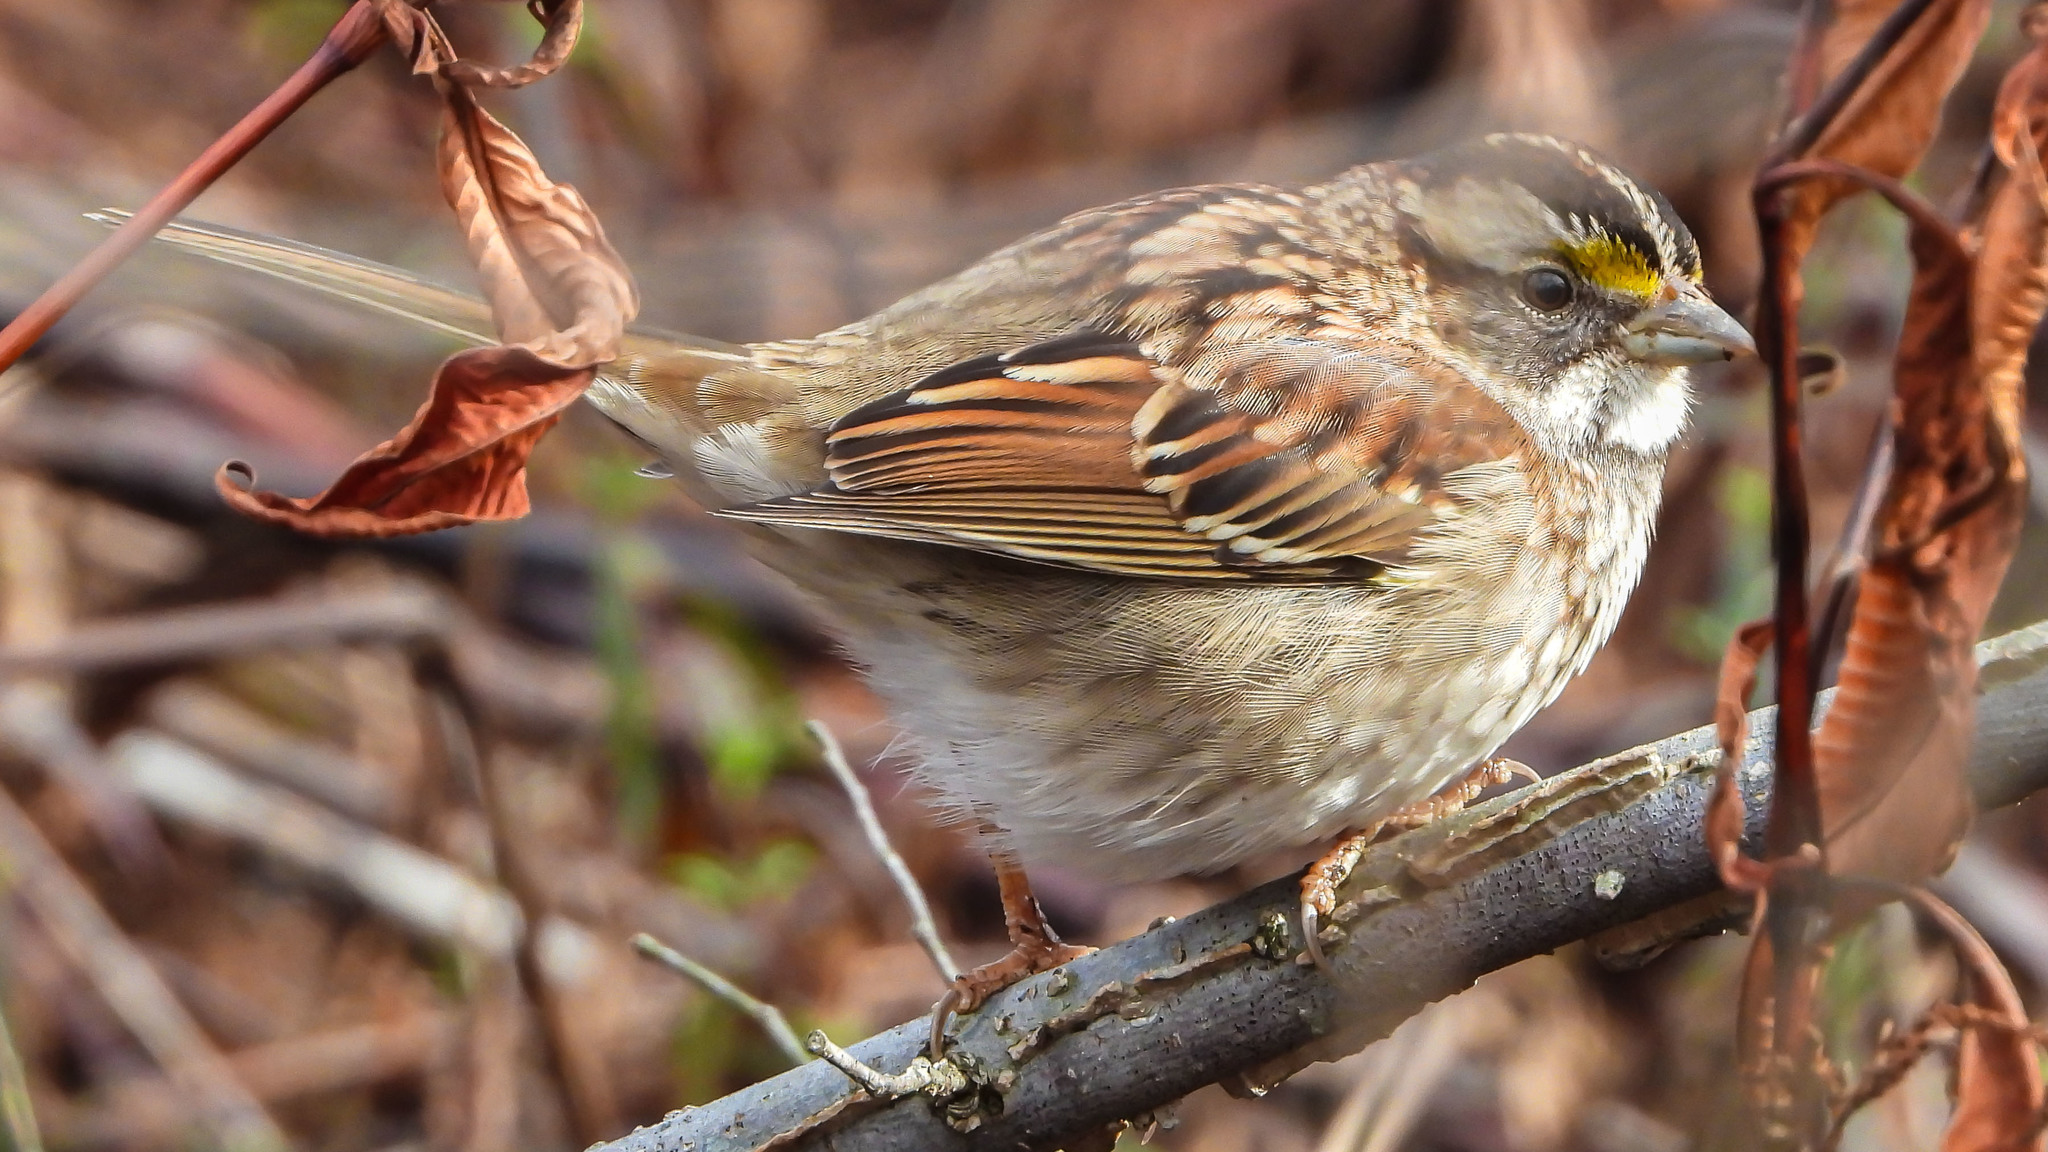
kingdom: Animalia
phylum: Chordata
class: Aves
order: Passeriformes
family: Passerellidae
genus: Zonotrichia
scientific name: Zonotrichia albicollis
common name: White-throated sparrow
